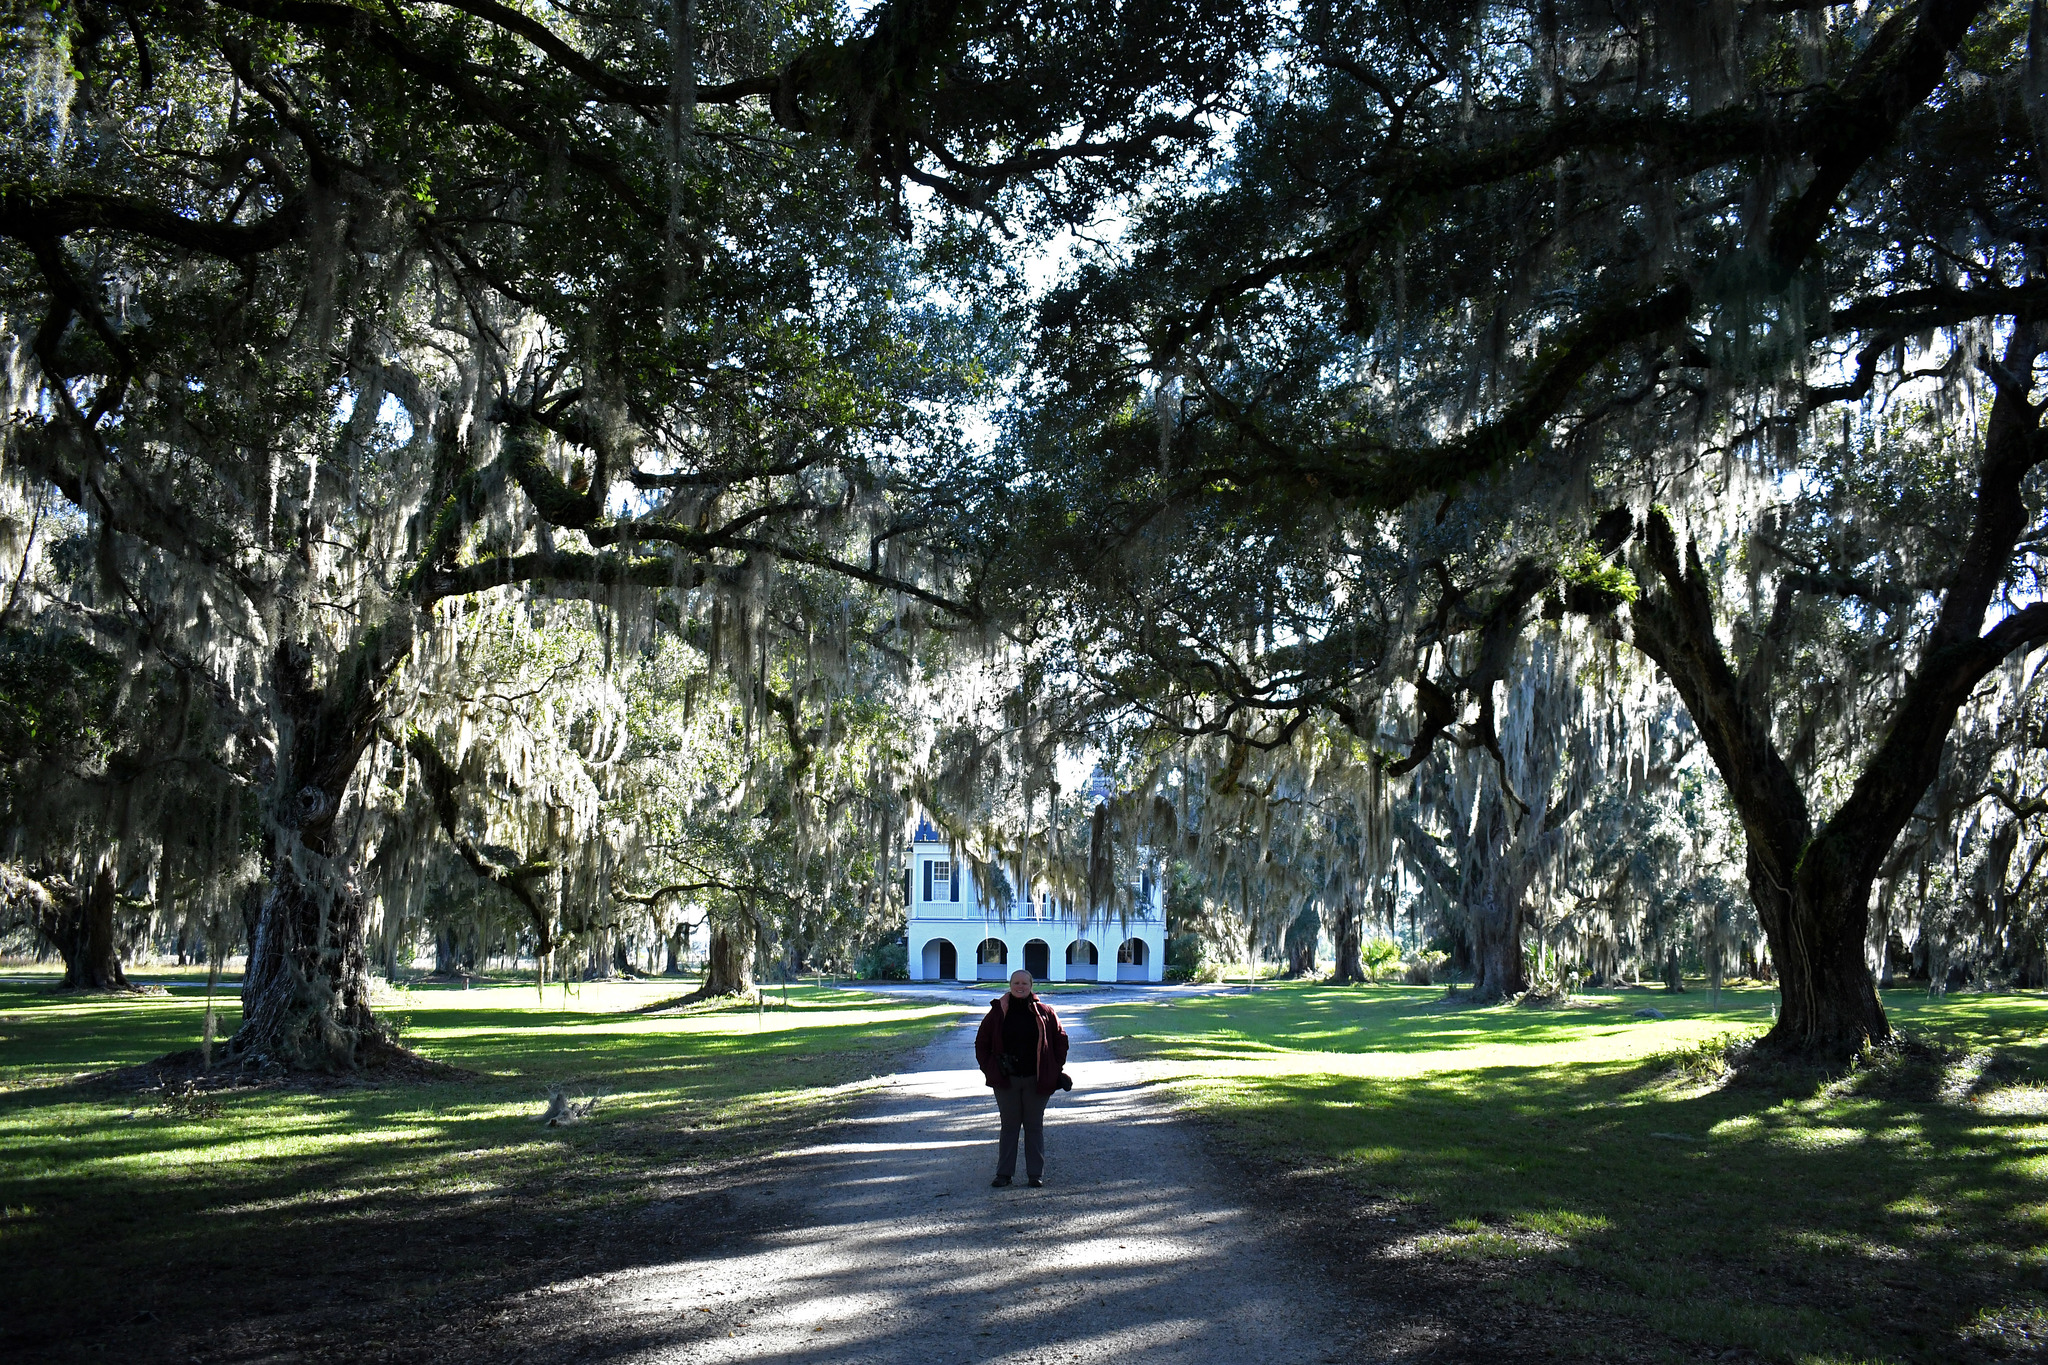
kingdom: Plantae
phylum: Tracheophyta
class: Magnoliopsida
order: Fagales
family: Fagaceae
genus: Quercus
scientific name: Quercus virginiana
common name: Southern live oak
